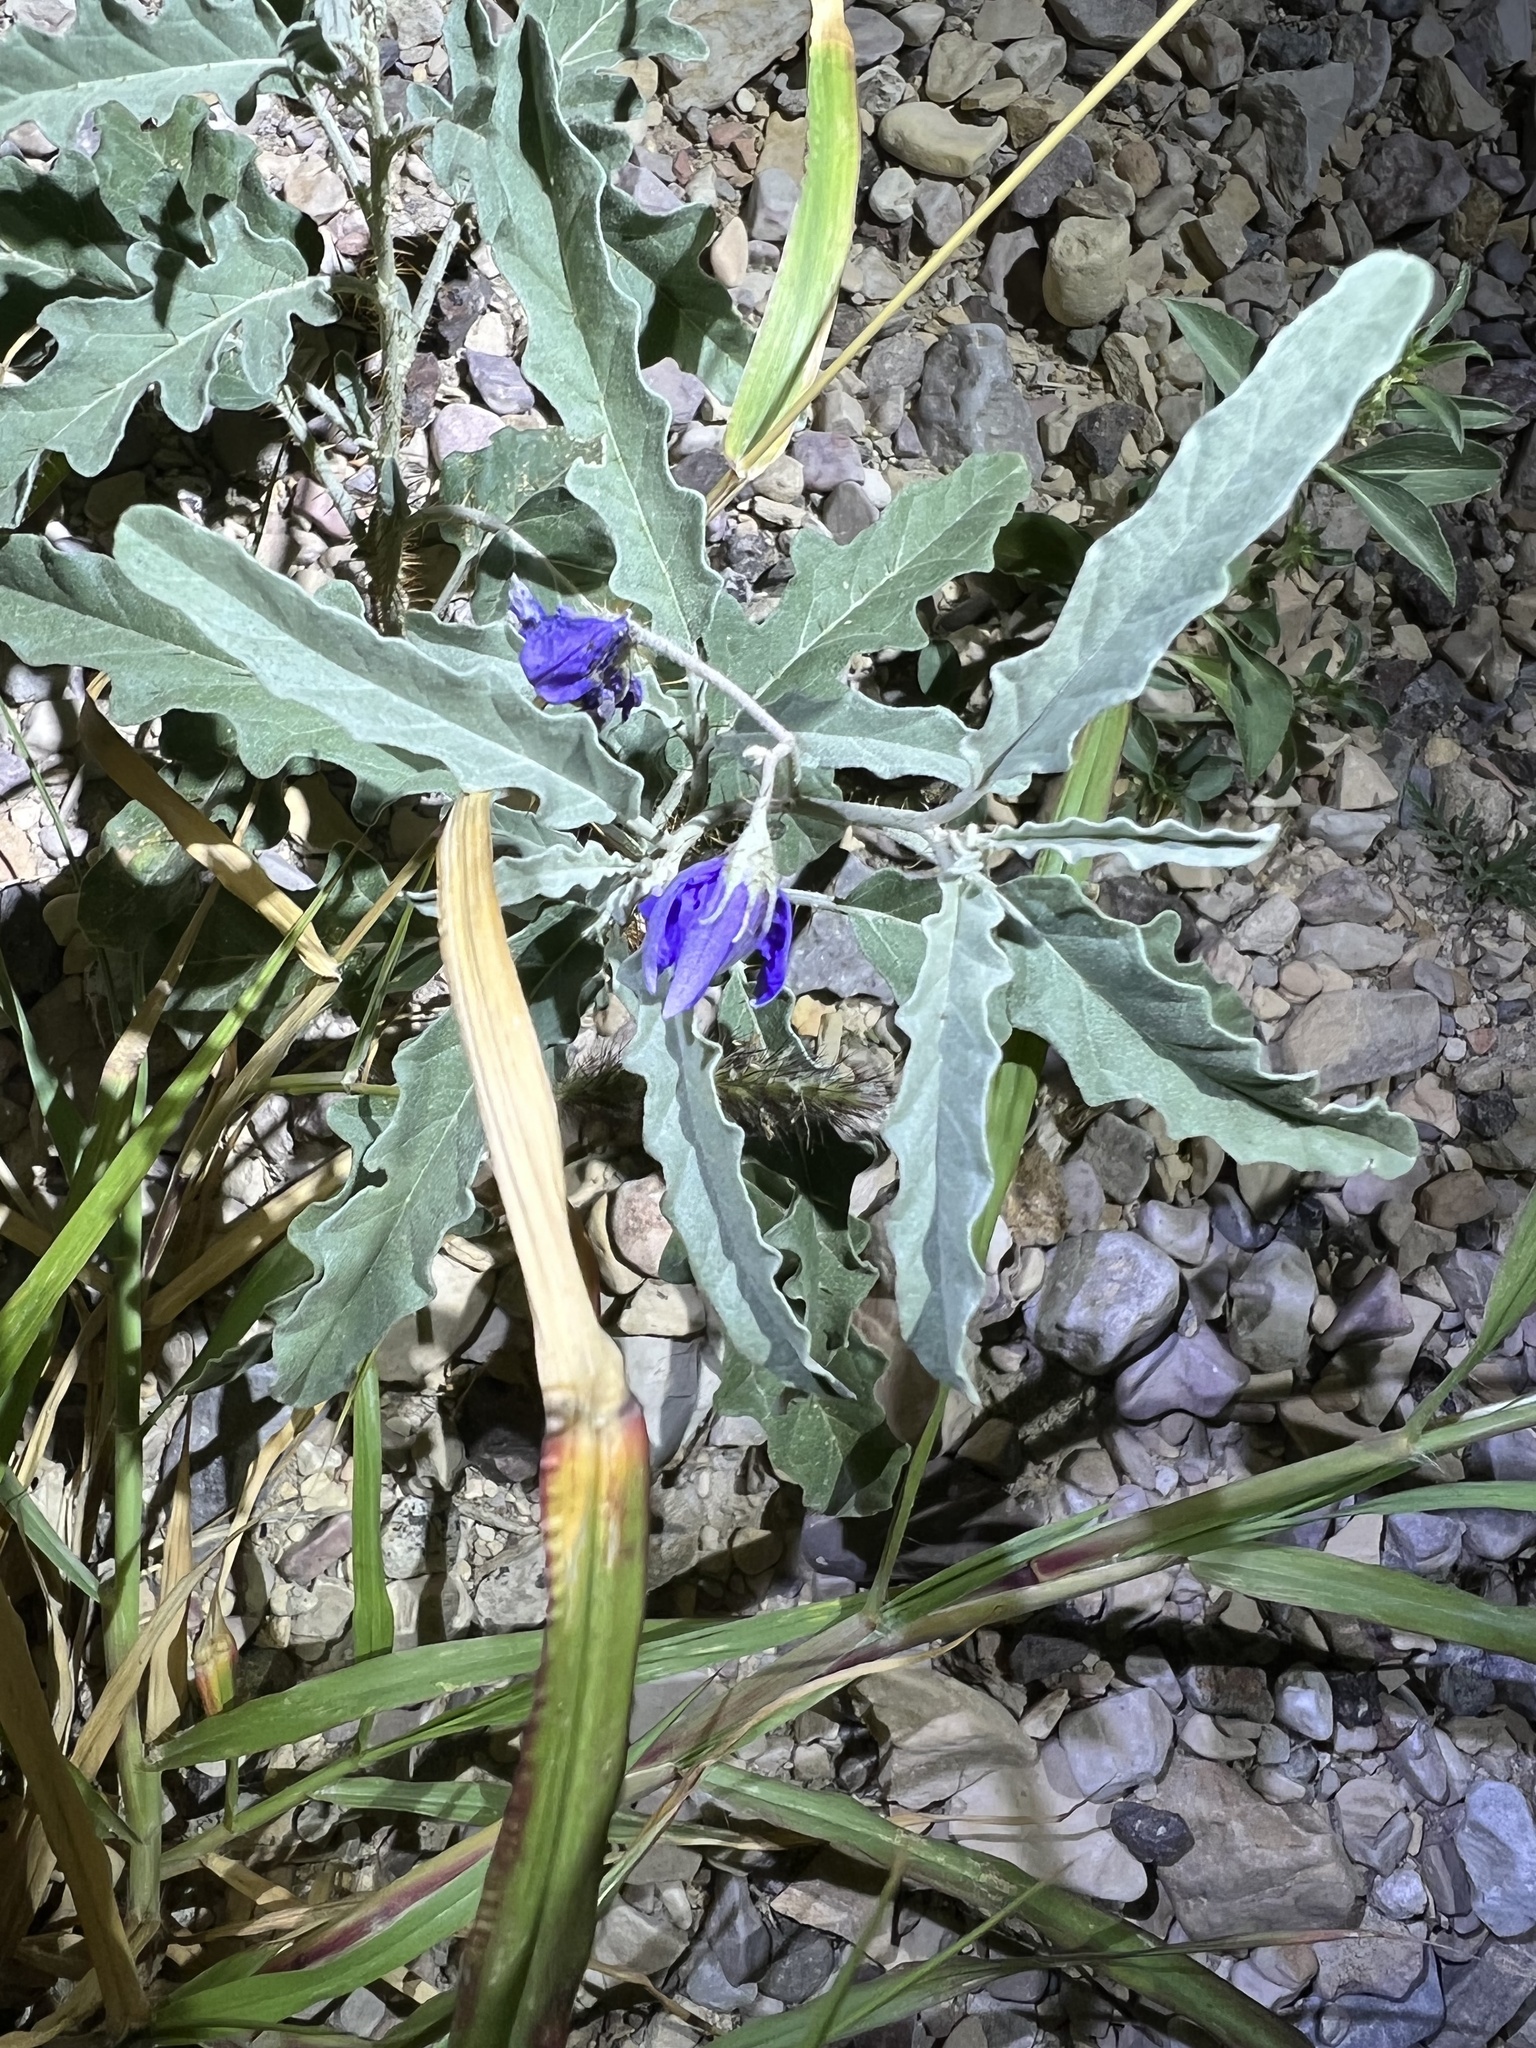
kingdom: Plantae
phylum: Tracheophyta
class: Magnoliopsida
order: Solanales
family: Solanaceae
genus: Solanum
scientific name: Solanum elaeagnifolium
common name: Silverleaf nightshade
